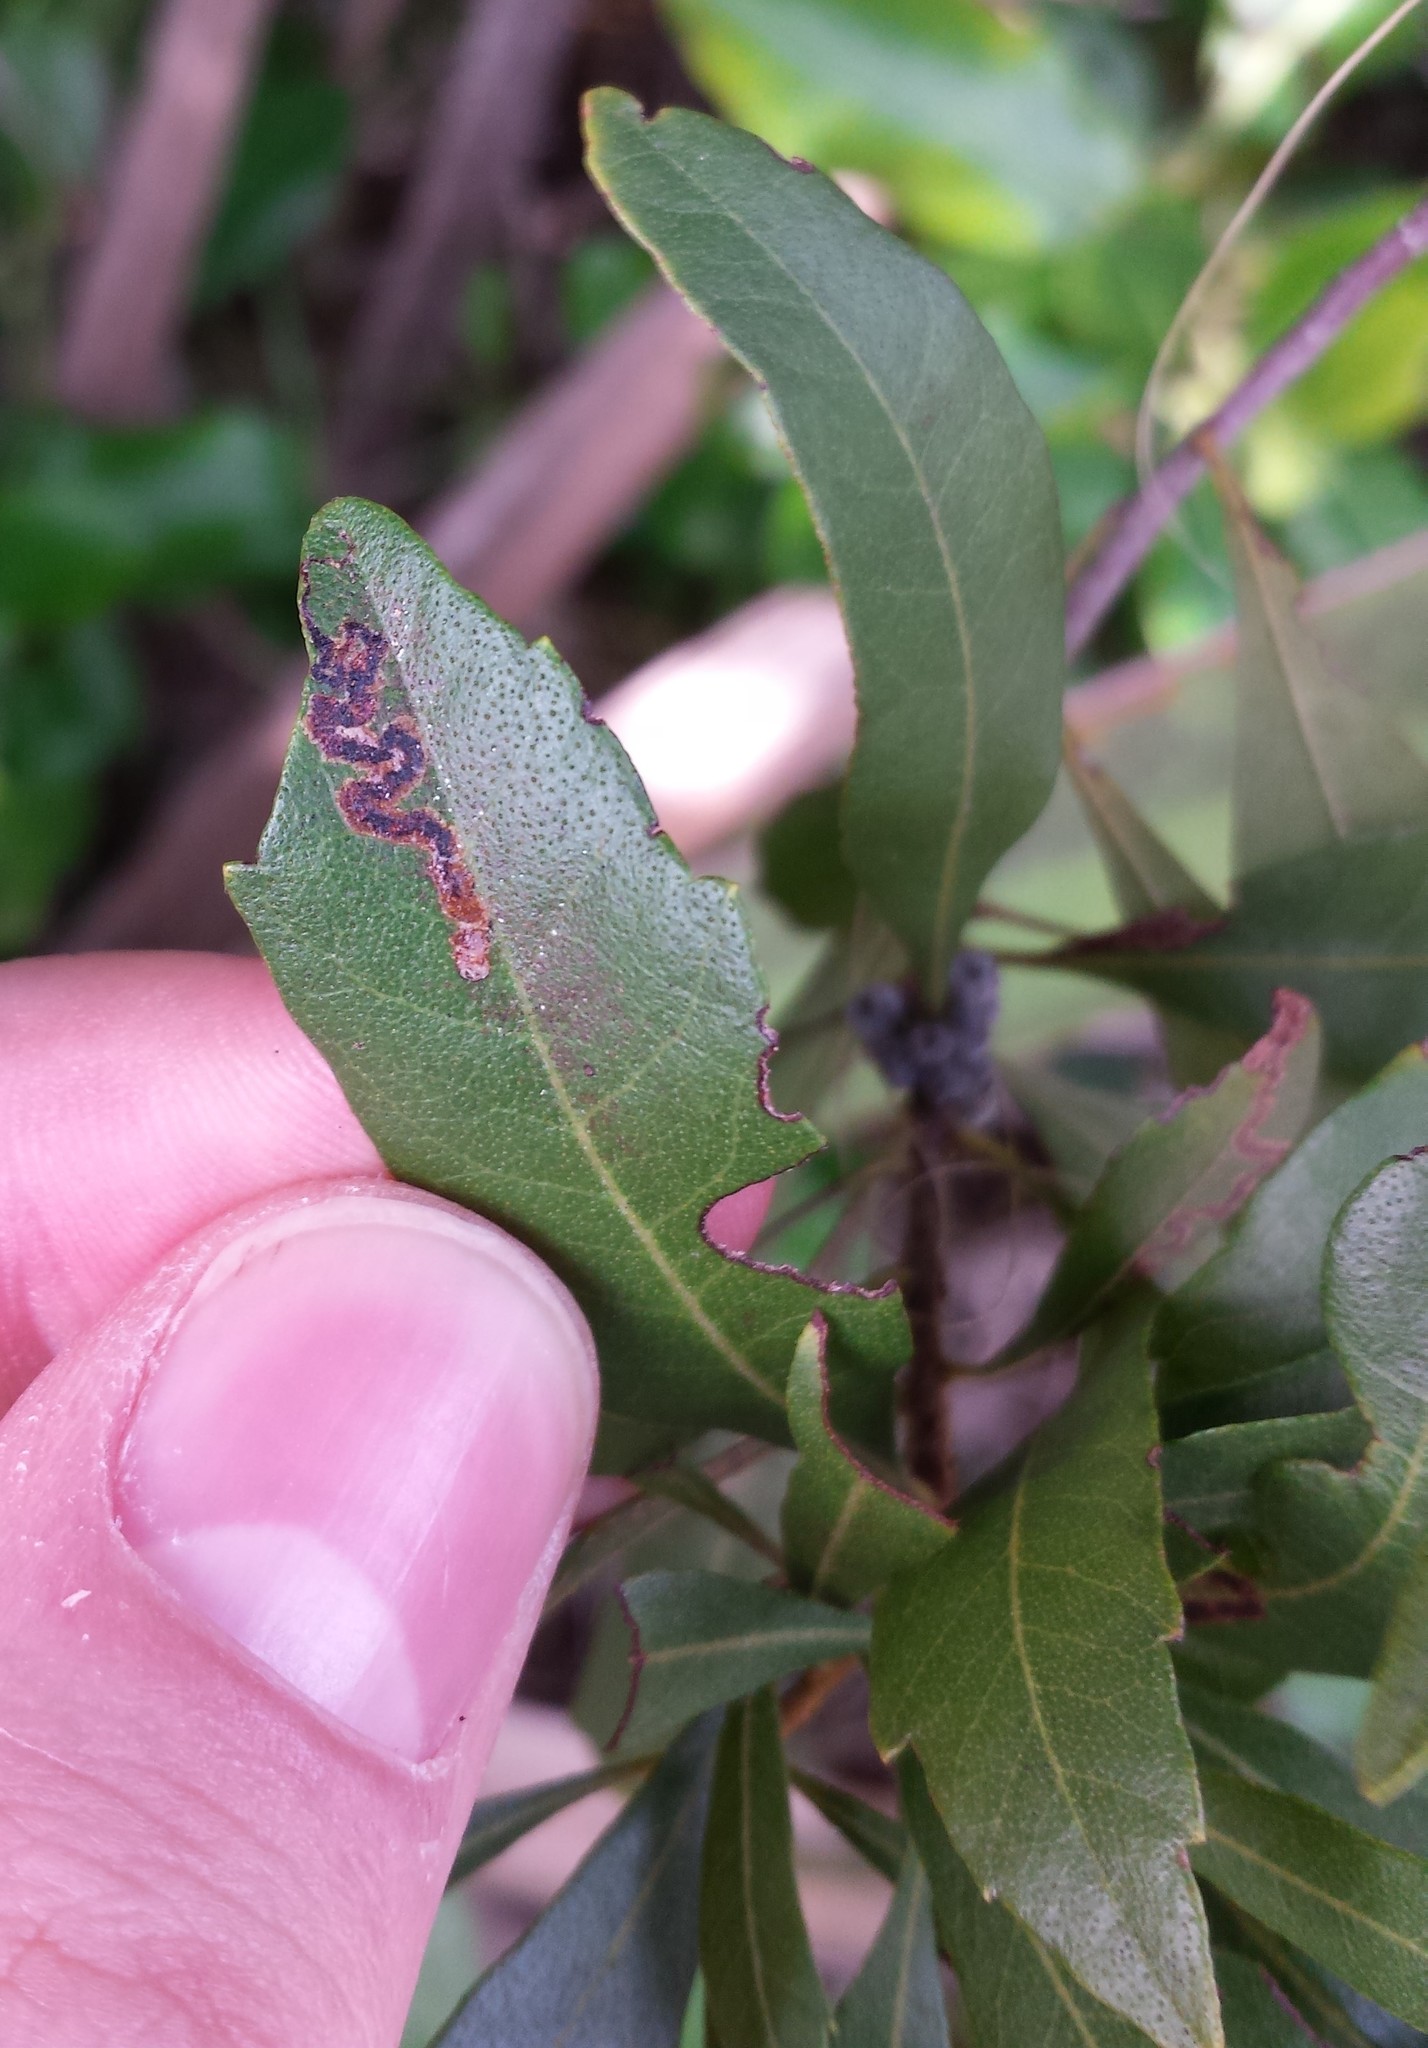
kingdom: Plantae
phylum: Tracheophyta
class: Magnoliopsida
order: Fagales
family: Myricaceae
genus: Morella
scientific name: Morella cerifera
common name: Wax myrtle
